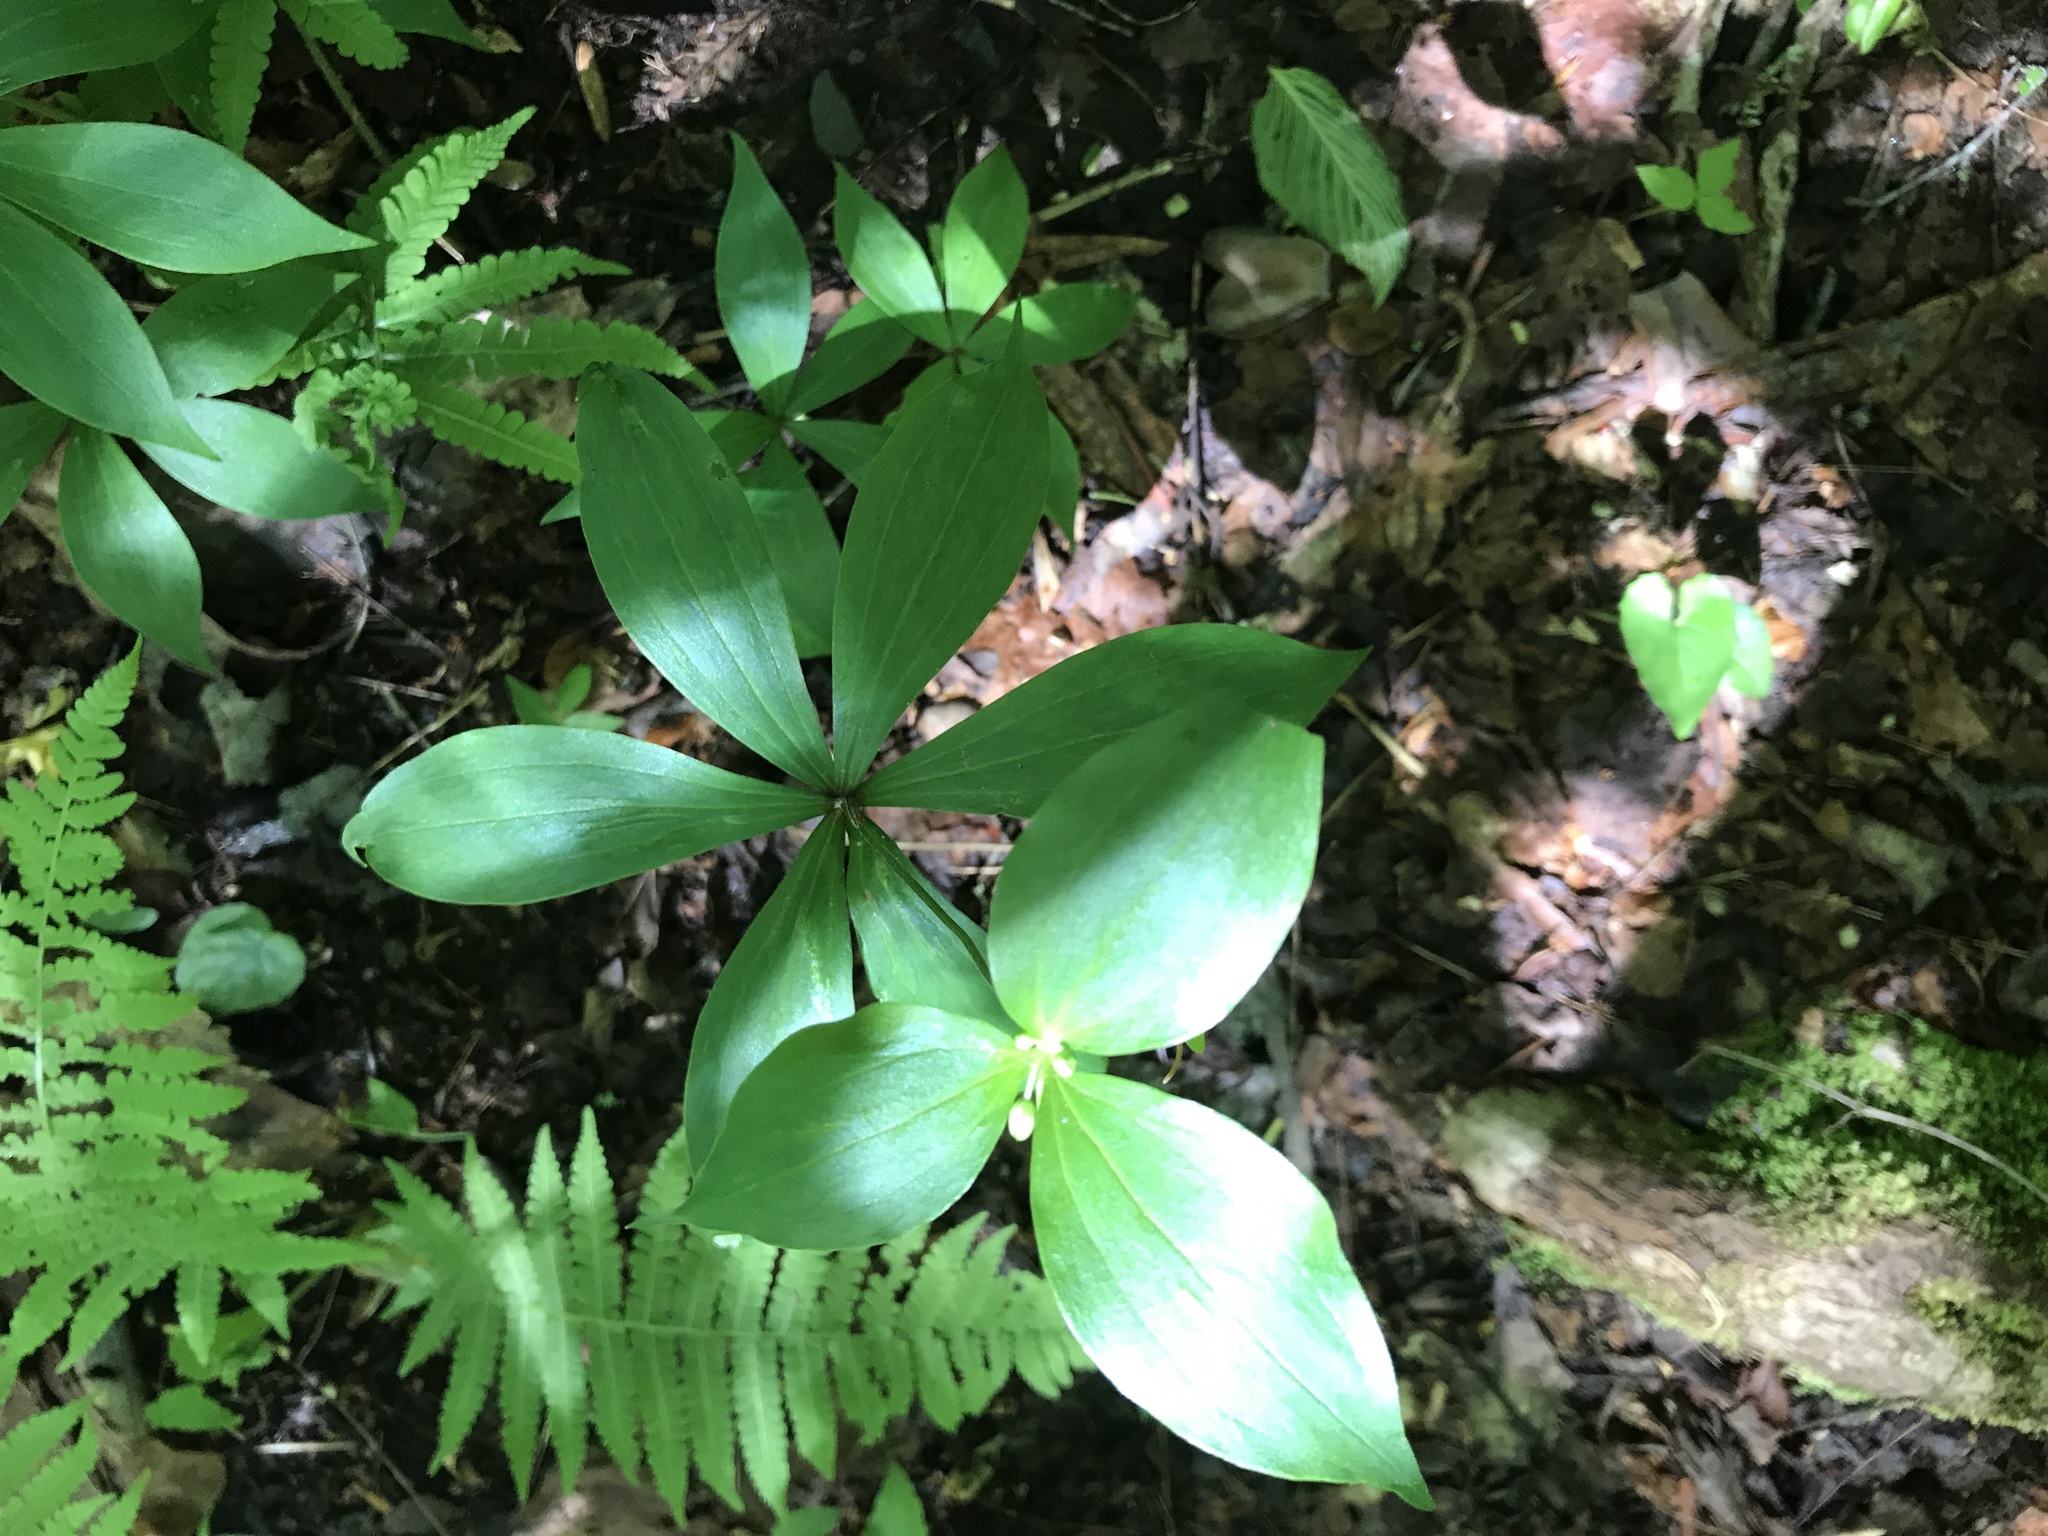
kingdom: Plantae
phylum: Tracheophyta
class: Liliopsida
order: Liliales
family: Liliaceae
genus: Medeola
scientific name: Medeola virginiana
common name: Indian cucumber-root
